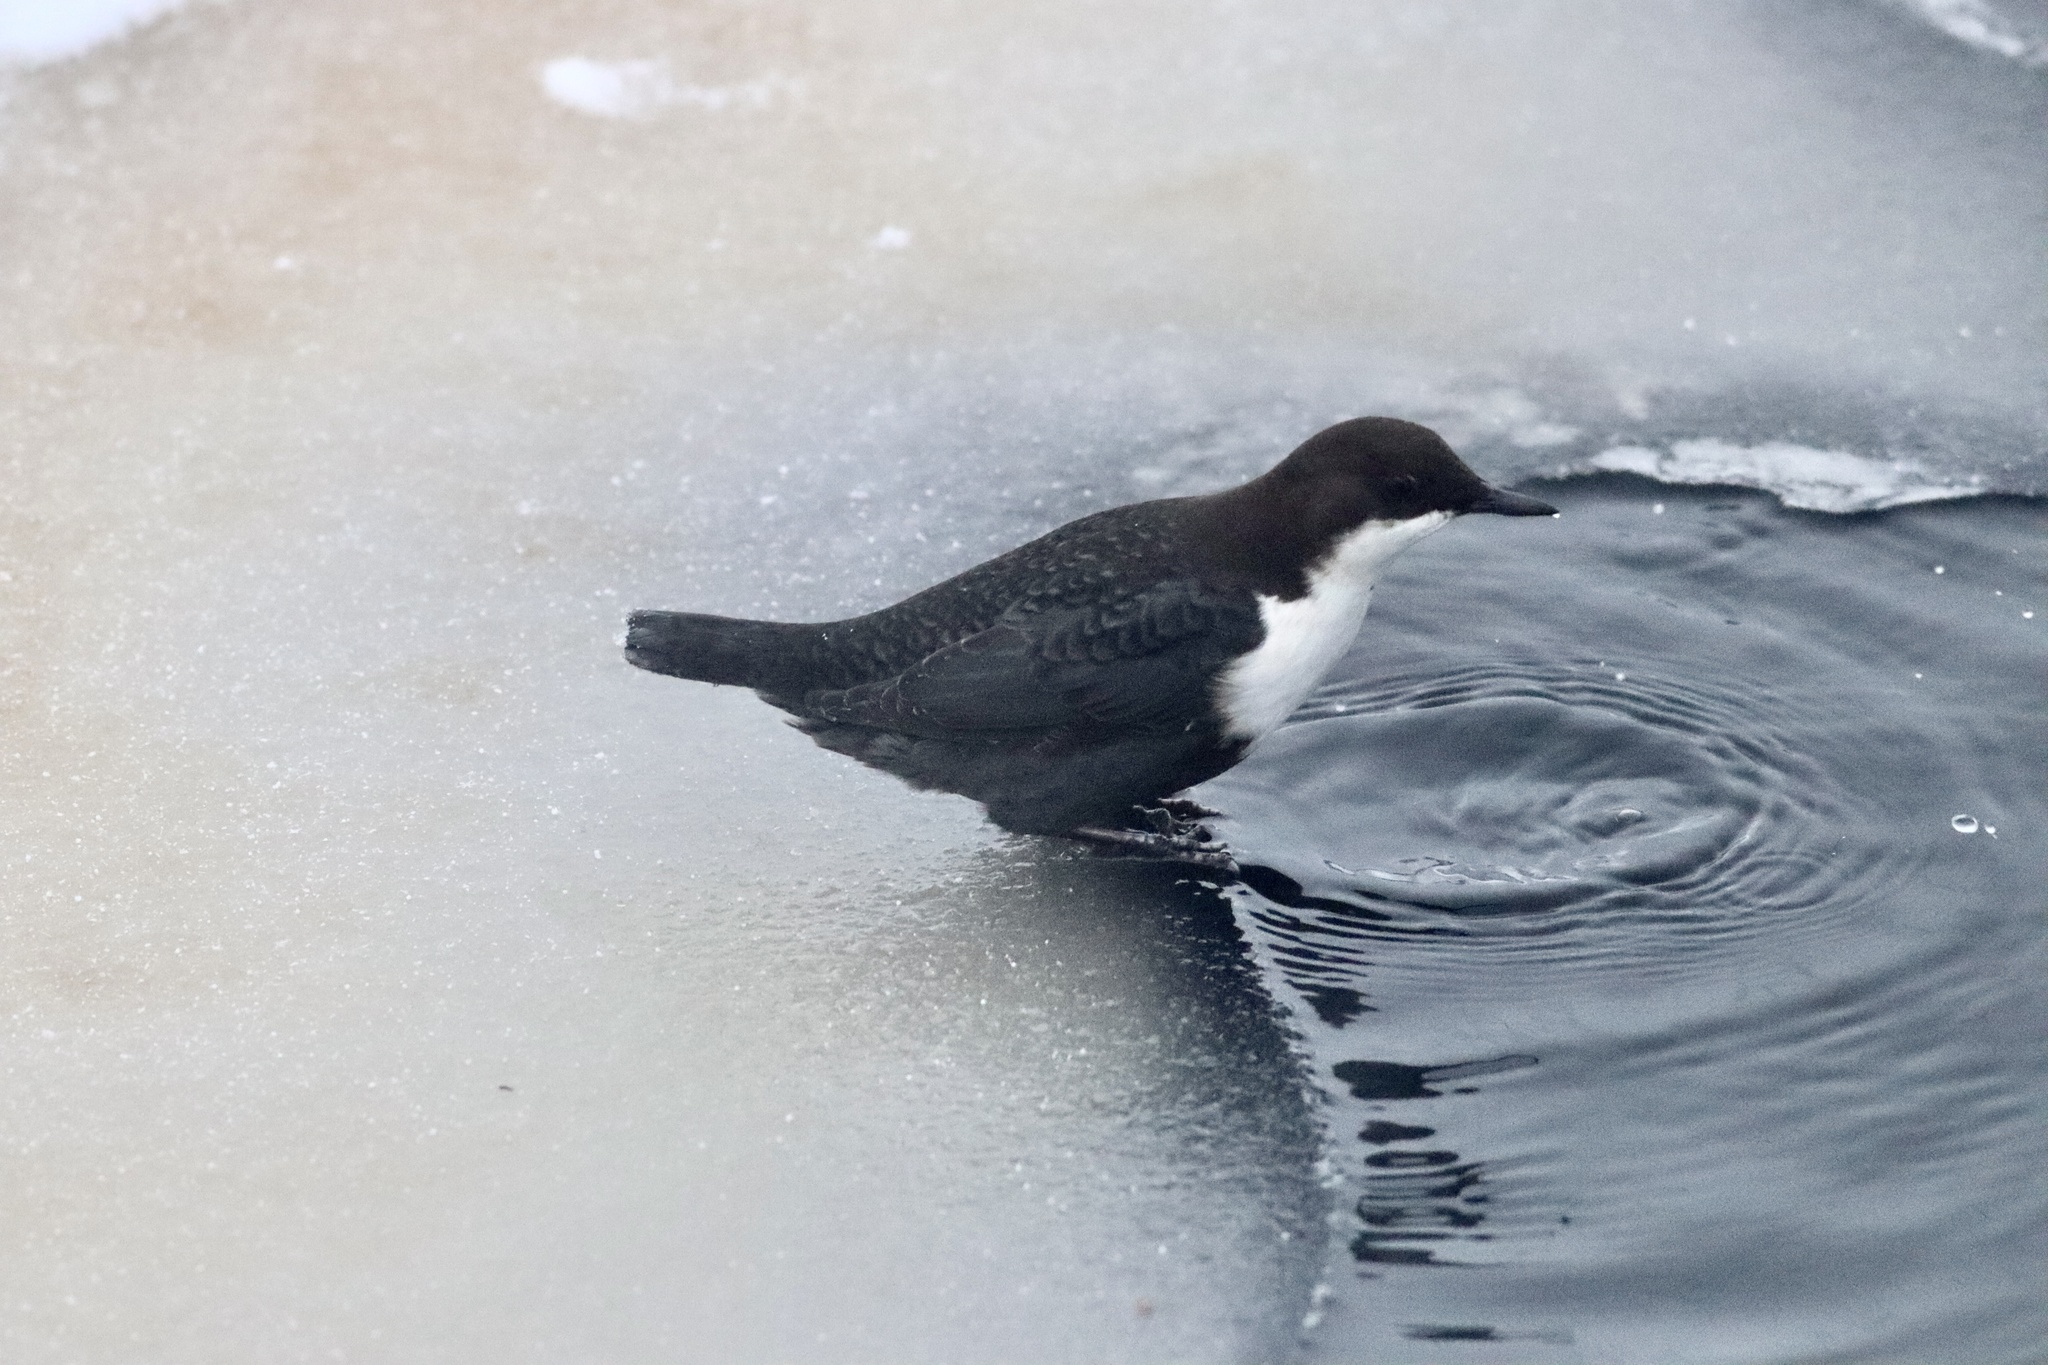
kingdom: Animalia
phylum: Chordata
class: Aves
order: Passeriformes
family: Cinclidae
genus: Cinclus
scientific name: Cinclus cinclus
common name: White-throated dipper
